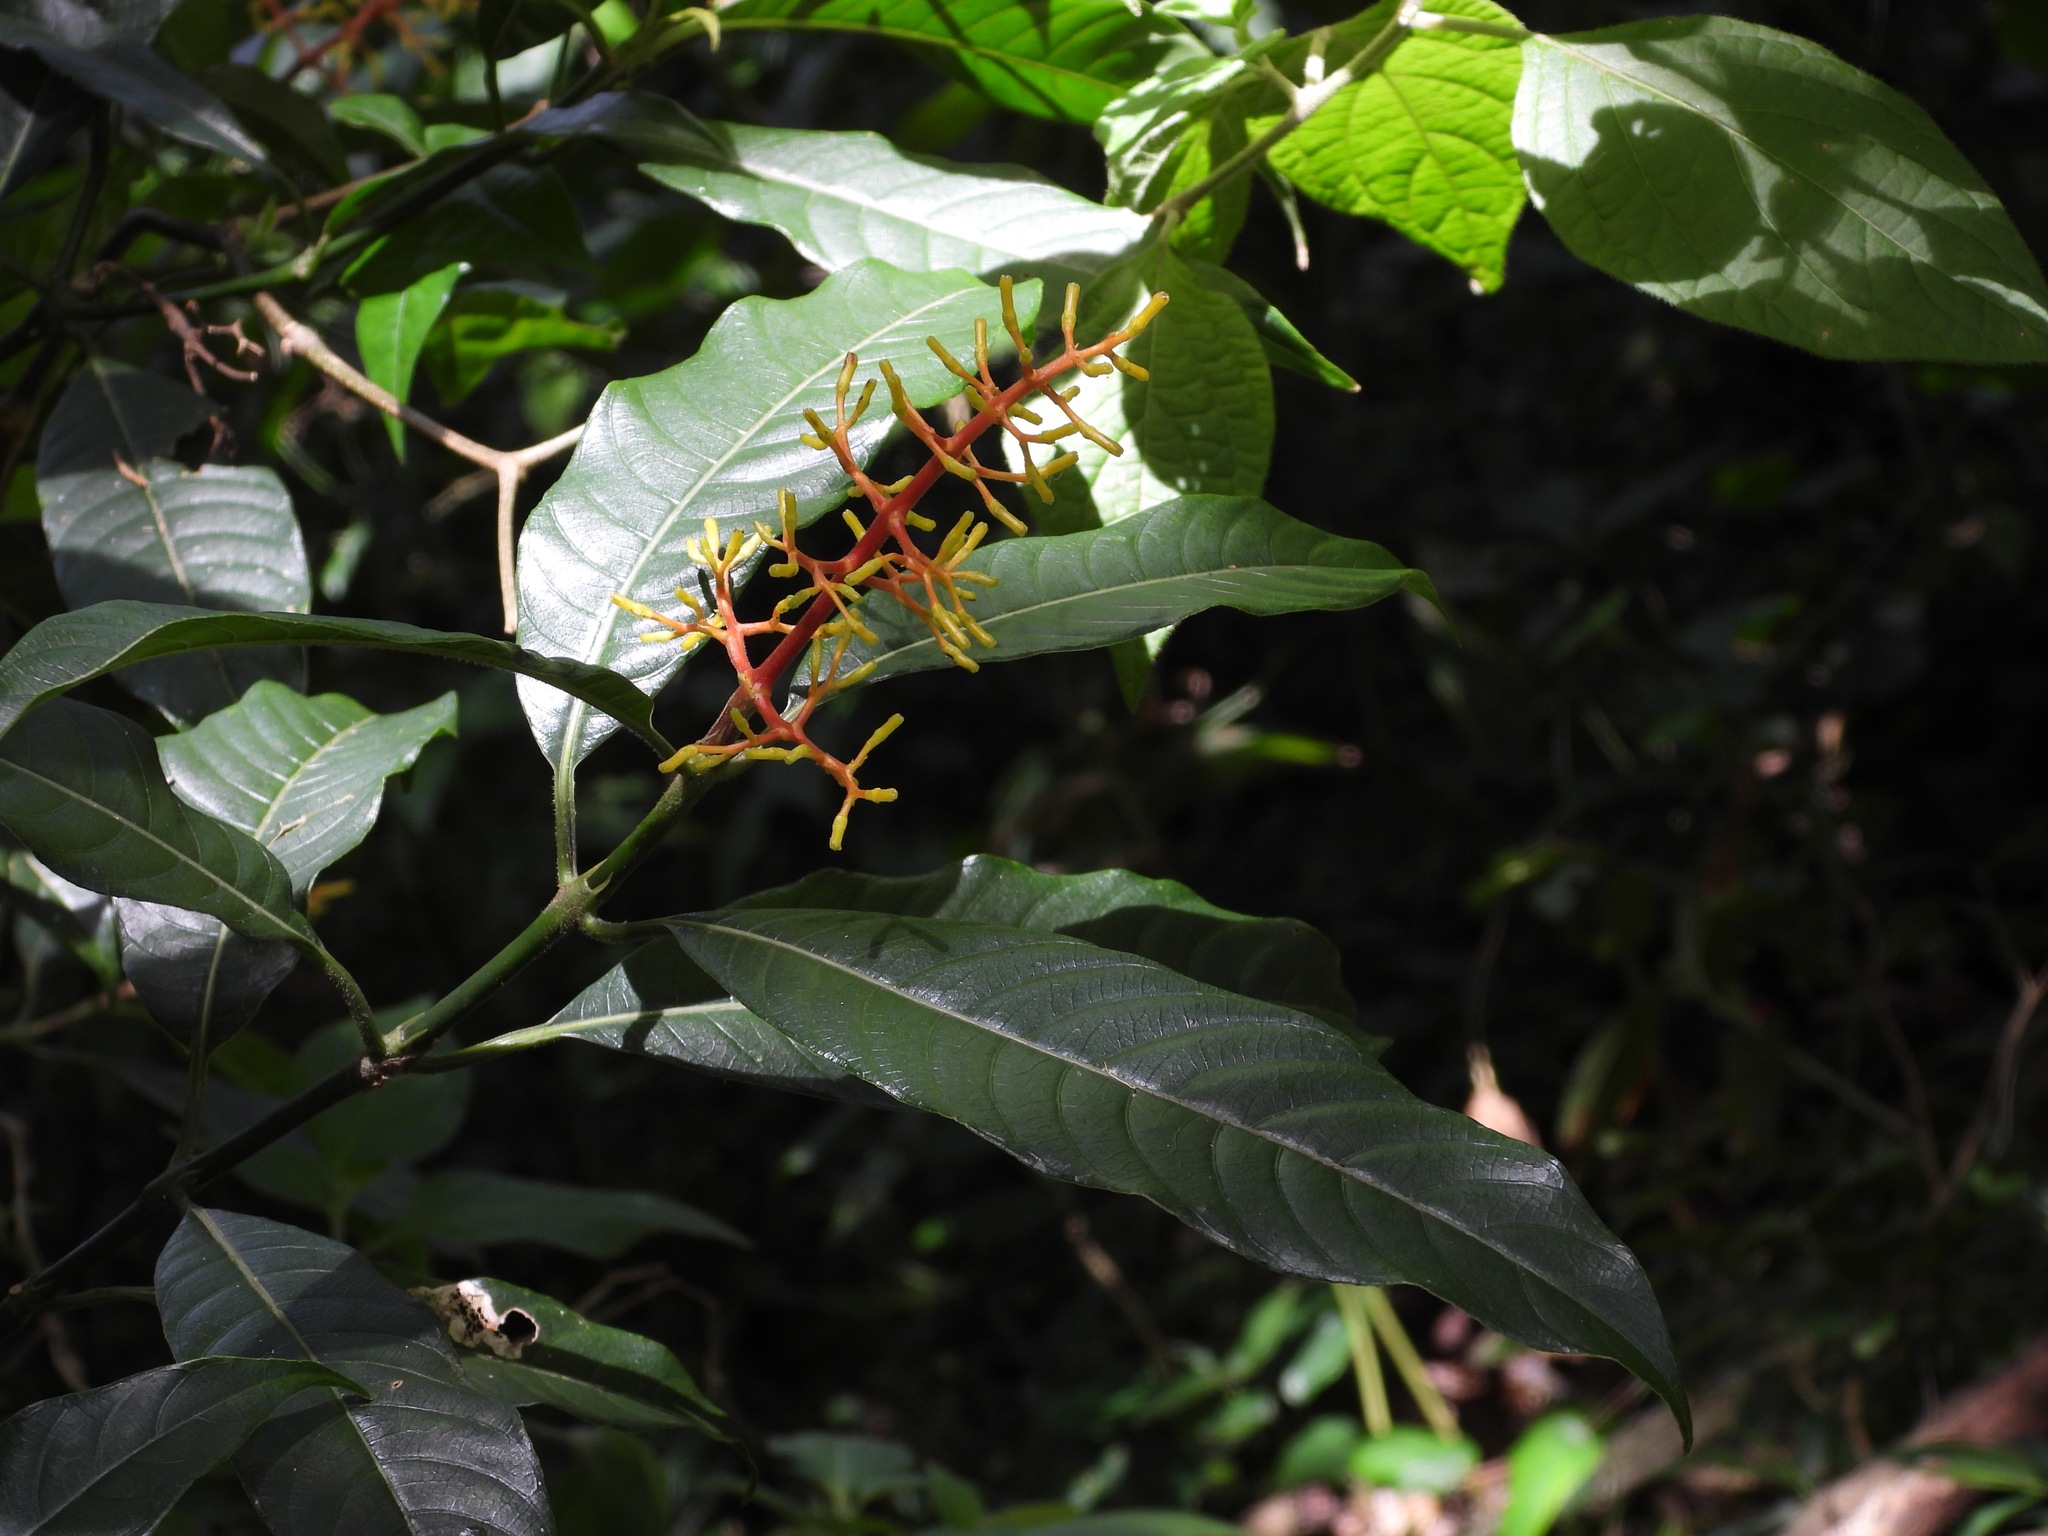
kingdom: Plantae
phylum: Tracheophyta
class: Magnoliopsida
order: Gentianales
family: Rubiaceae
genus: Palicourea
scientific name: Palicourea padifolia
